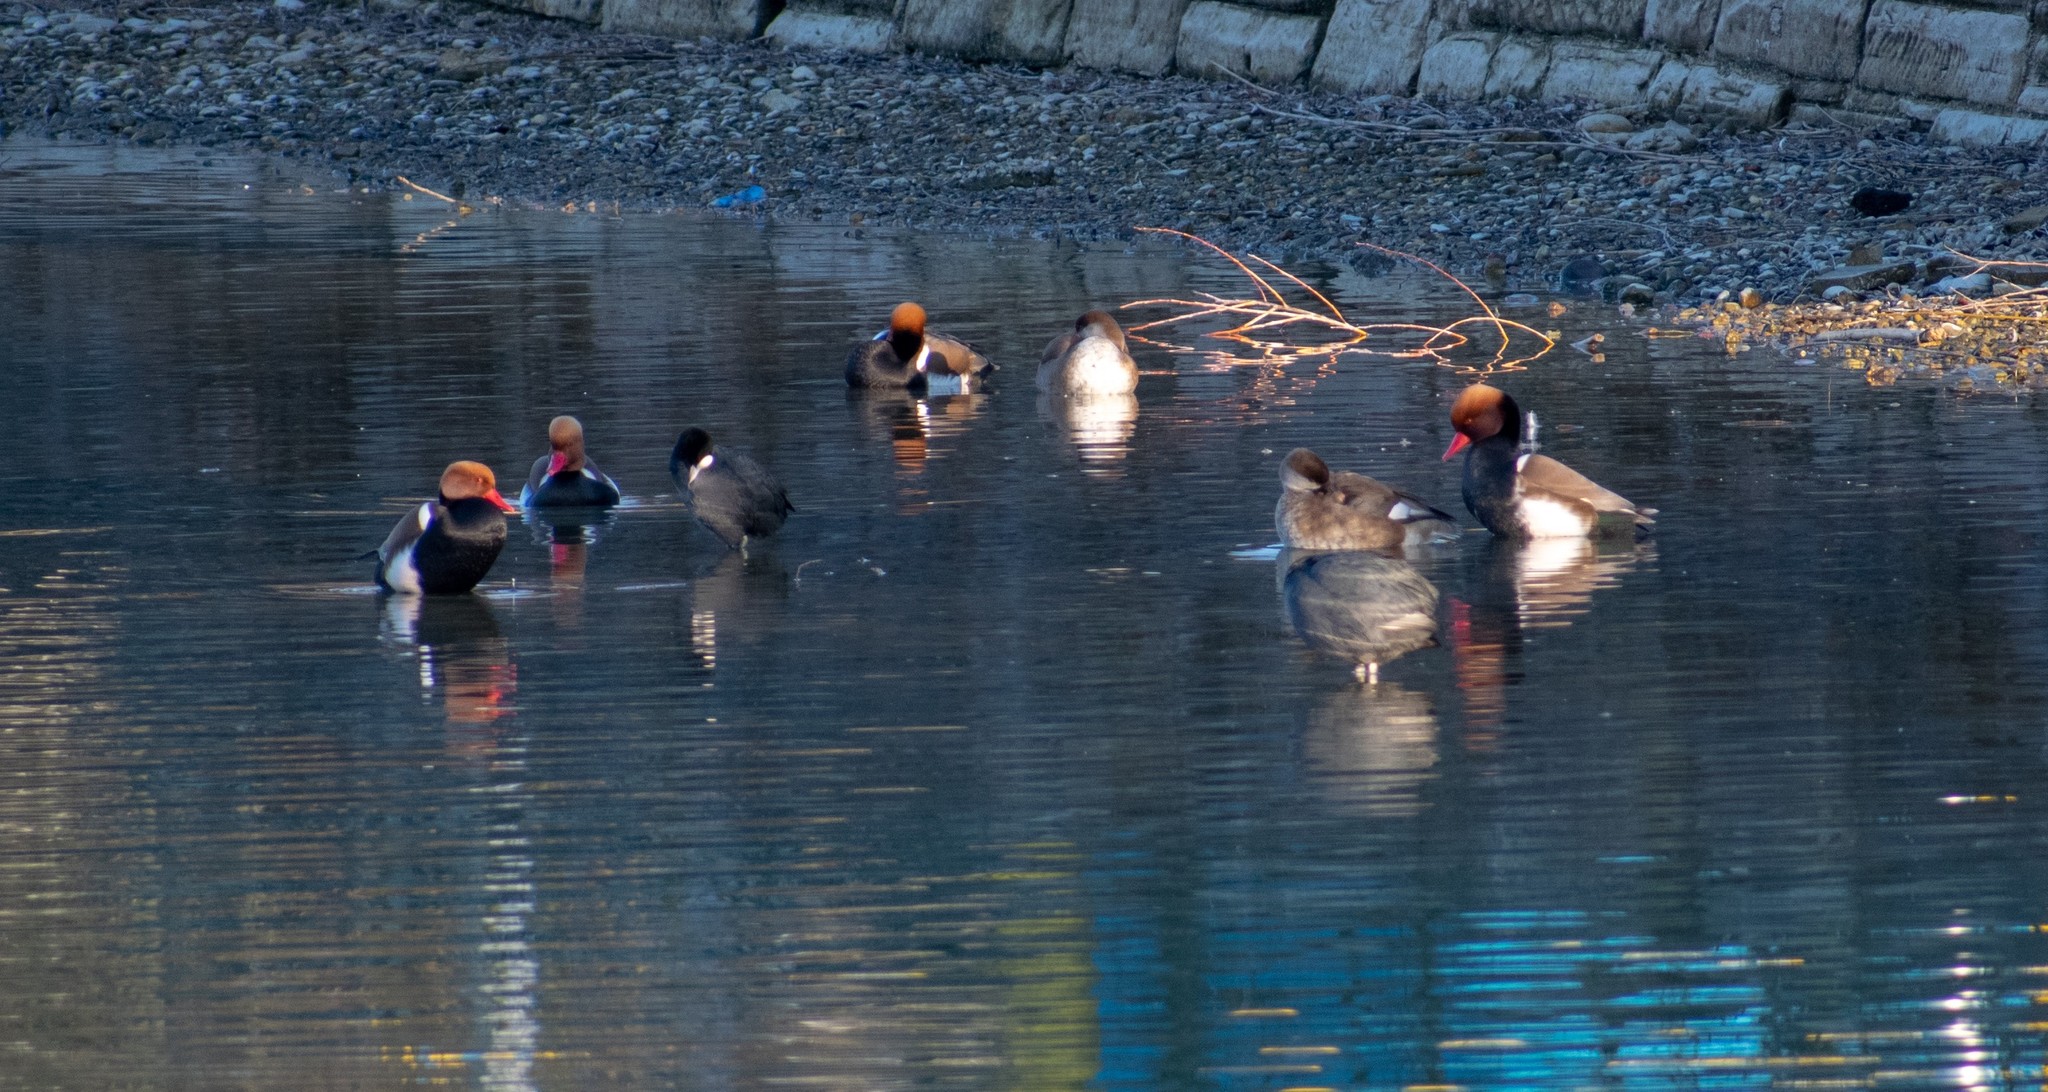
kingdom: Animalia
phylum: Chordata
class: Aves
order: Anseriformes
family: Anatidae
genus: Netta
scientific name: Netta rufina
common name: Red-crested pochard
